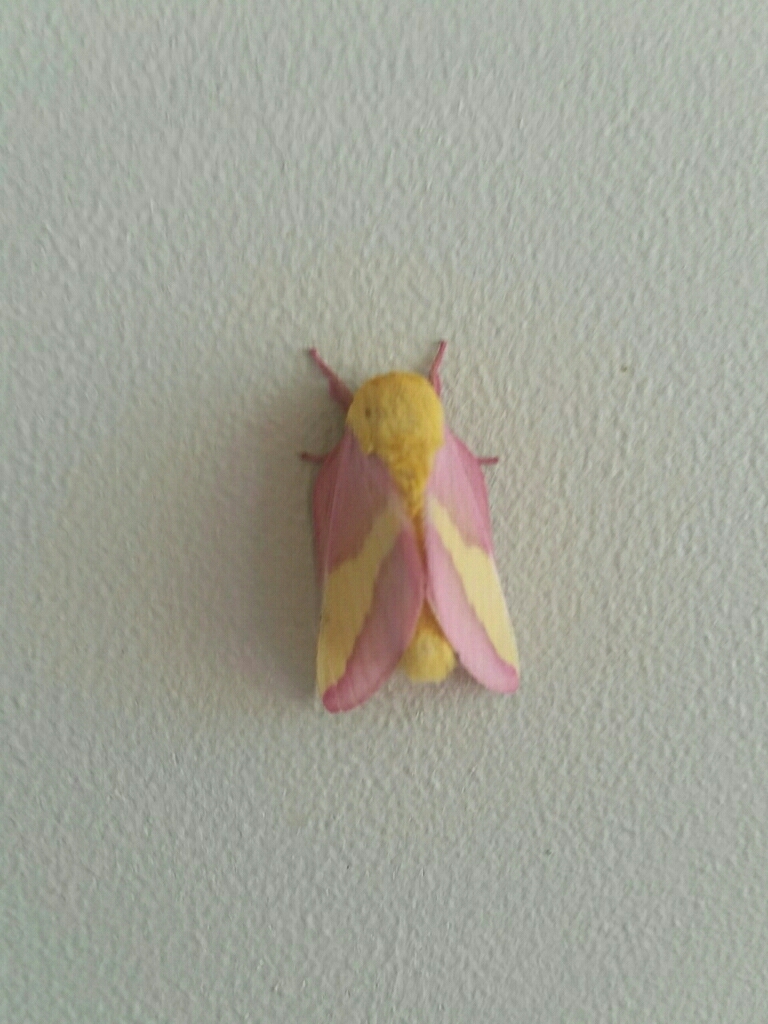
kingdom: Animalia
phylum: Arthropoda
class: Insecta
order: Lepidoptera
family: Saturniidae
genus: Dryocampa
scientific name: Dryocampa rubicunda
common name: Rosy maple moth
